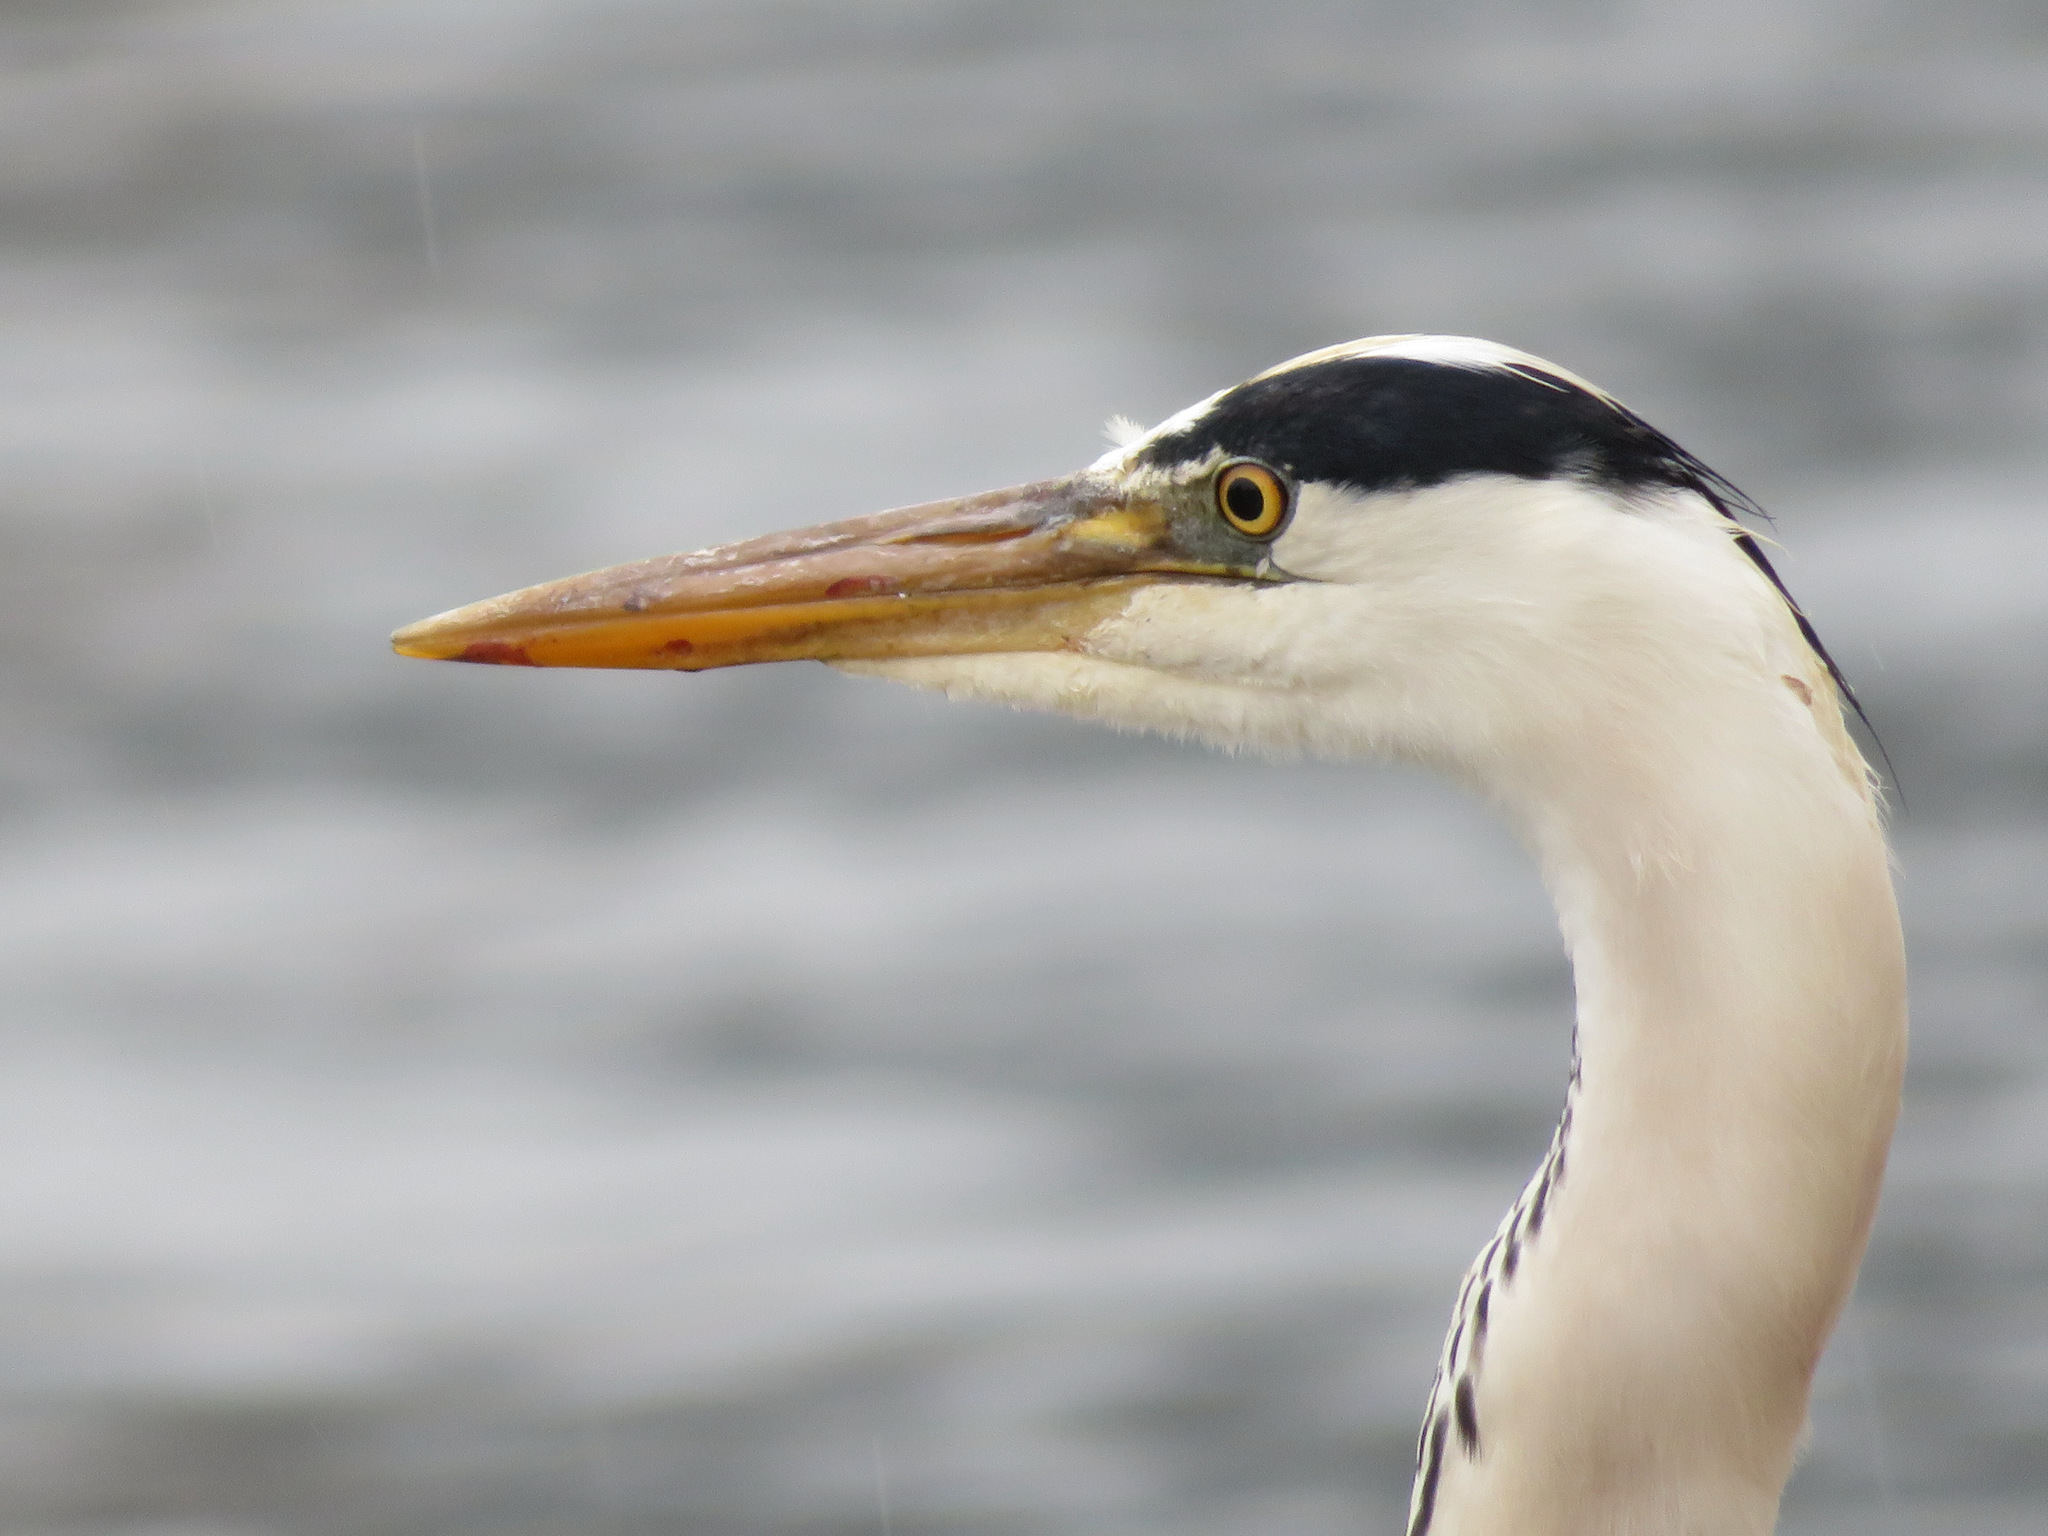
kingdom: Animalia
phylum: Chordata
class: Aves
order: Pelecaniformes
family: Ardeidae
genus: Ardea
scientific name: Ardea cinerea
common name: Grey heron
